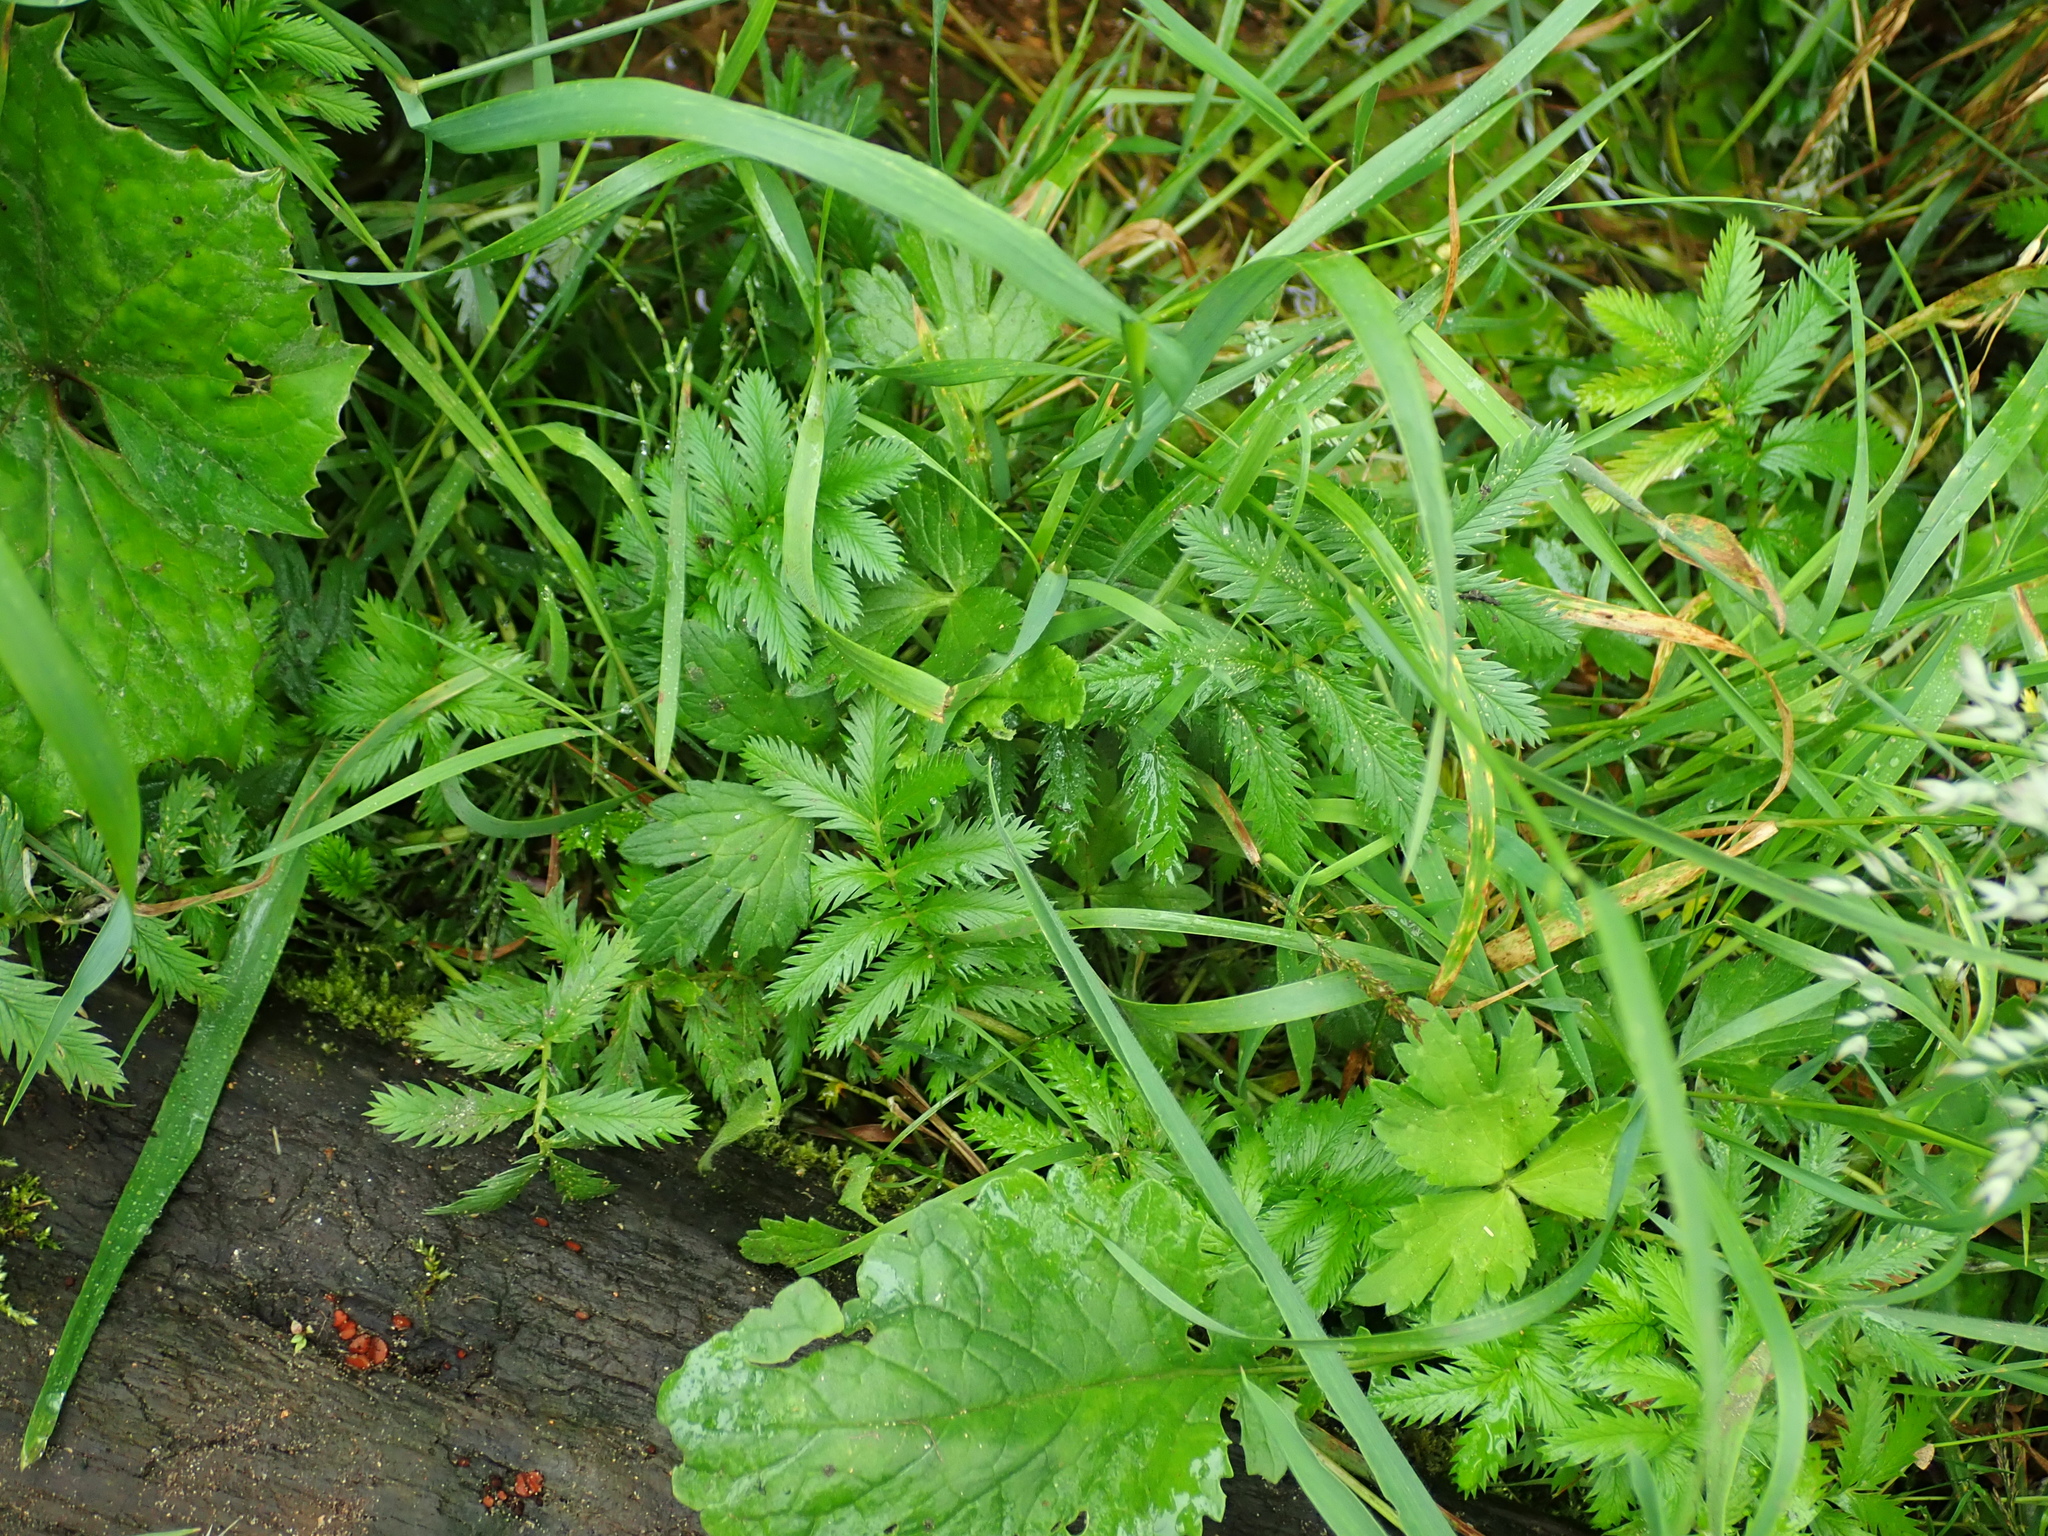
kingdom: Plantae
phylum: Tracheophyta
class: Magnoliopsida
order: Rosales
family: Rosaceae
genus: Argentina
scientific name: Argentina anserina
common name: Common silverweed
